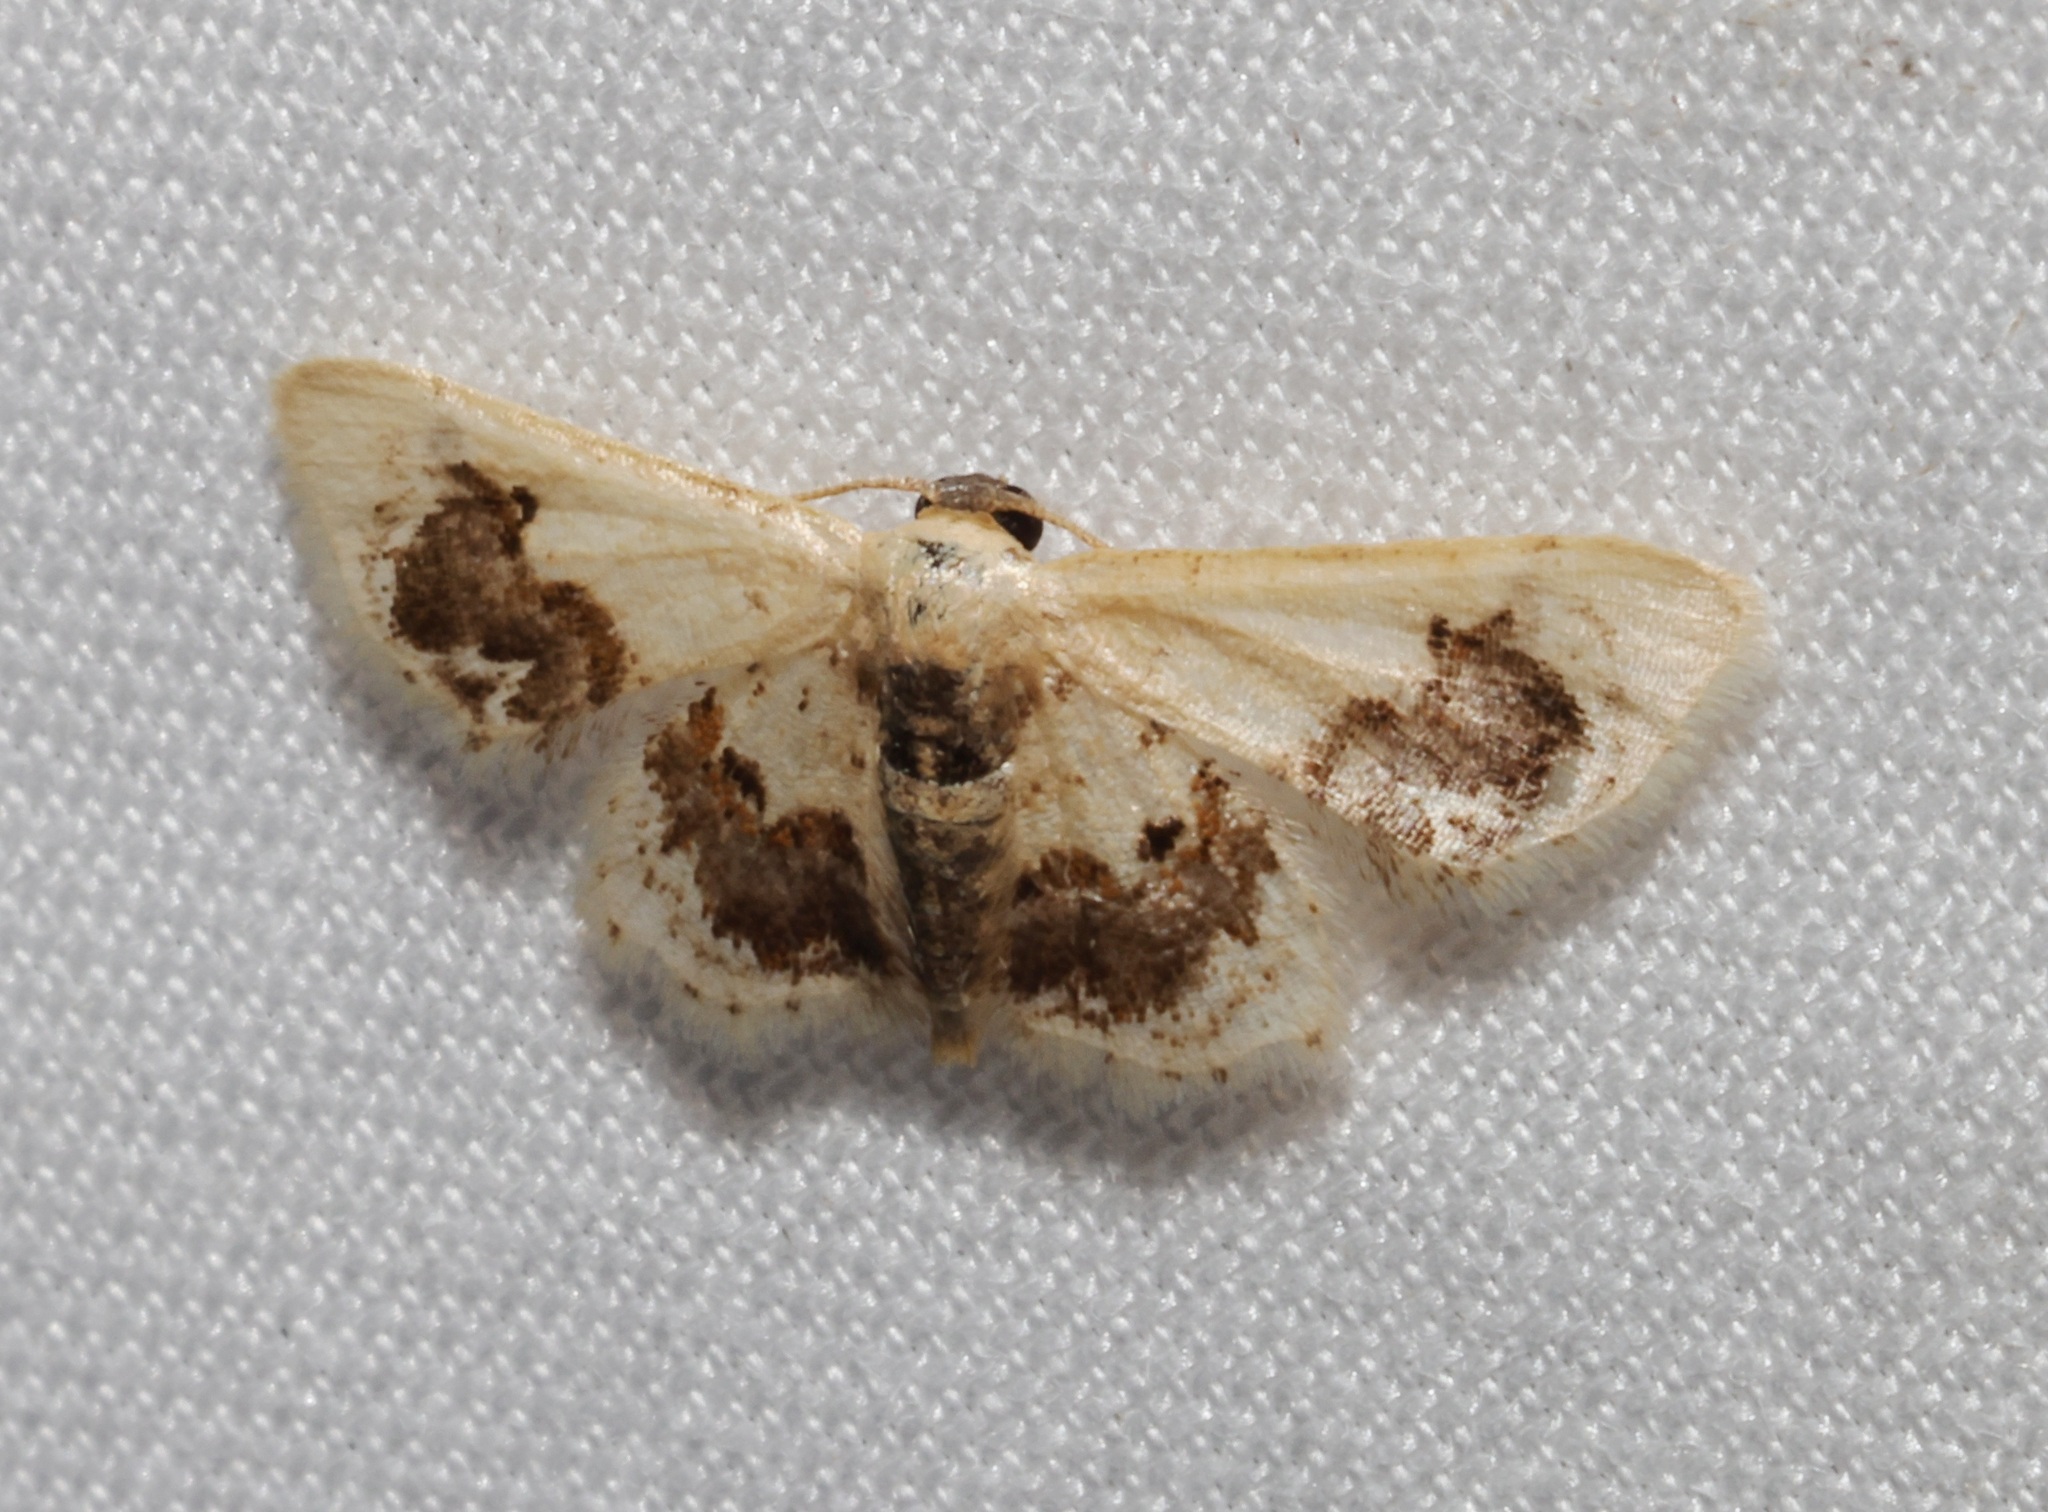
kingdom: Animalia
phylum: Arthropoda
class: Insecta
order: Lepidoptera
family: Geometridae
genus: Idaea
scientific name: Idaea macrospila
